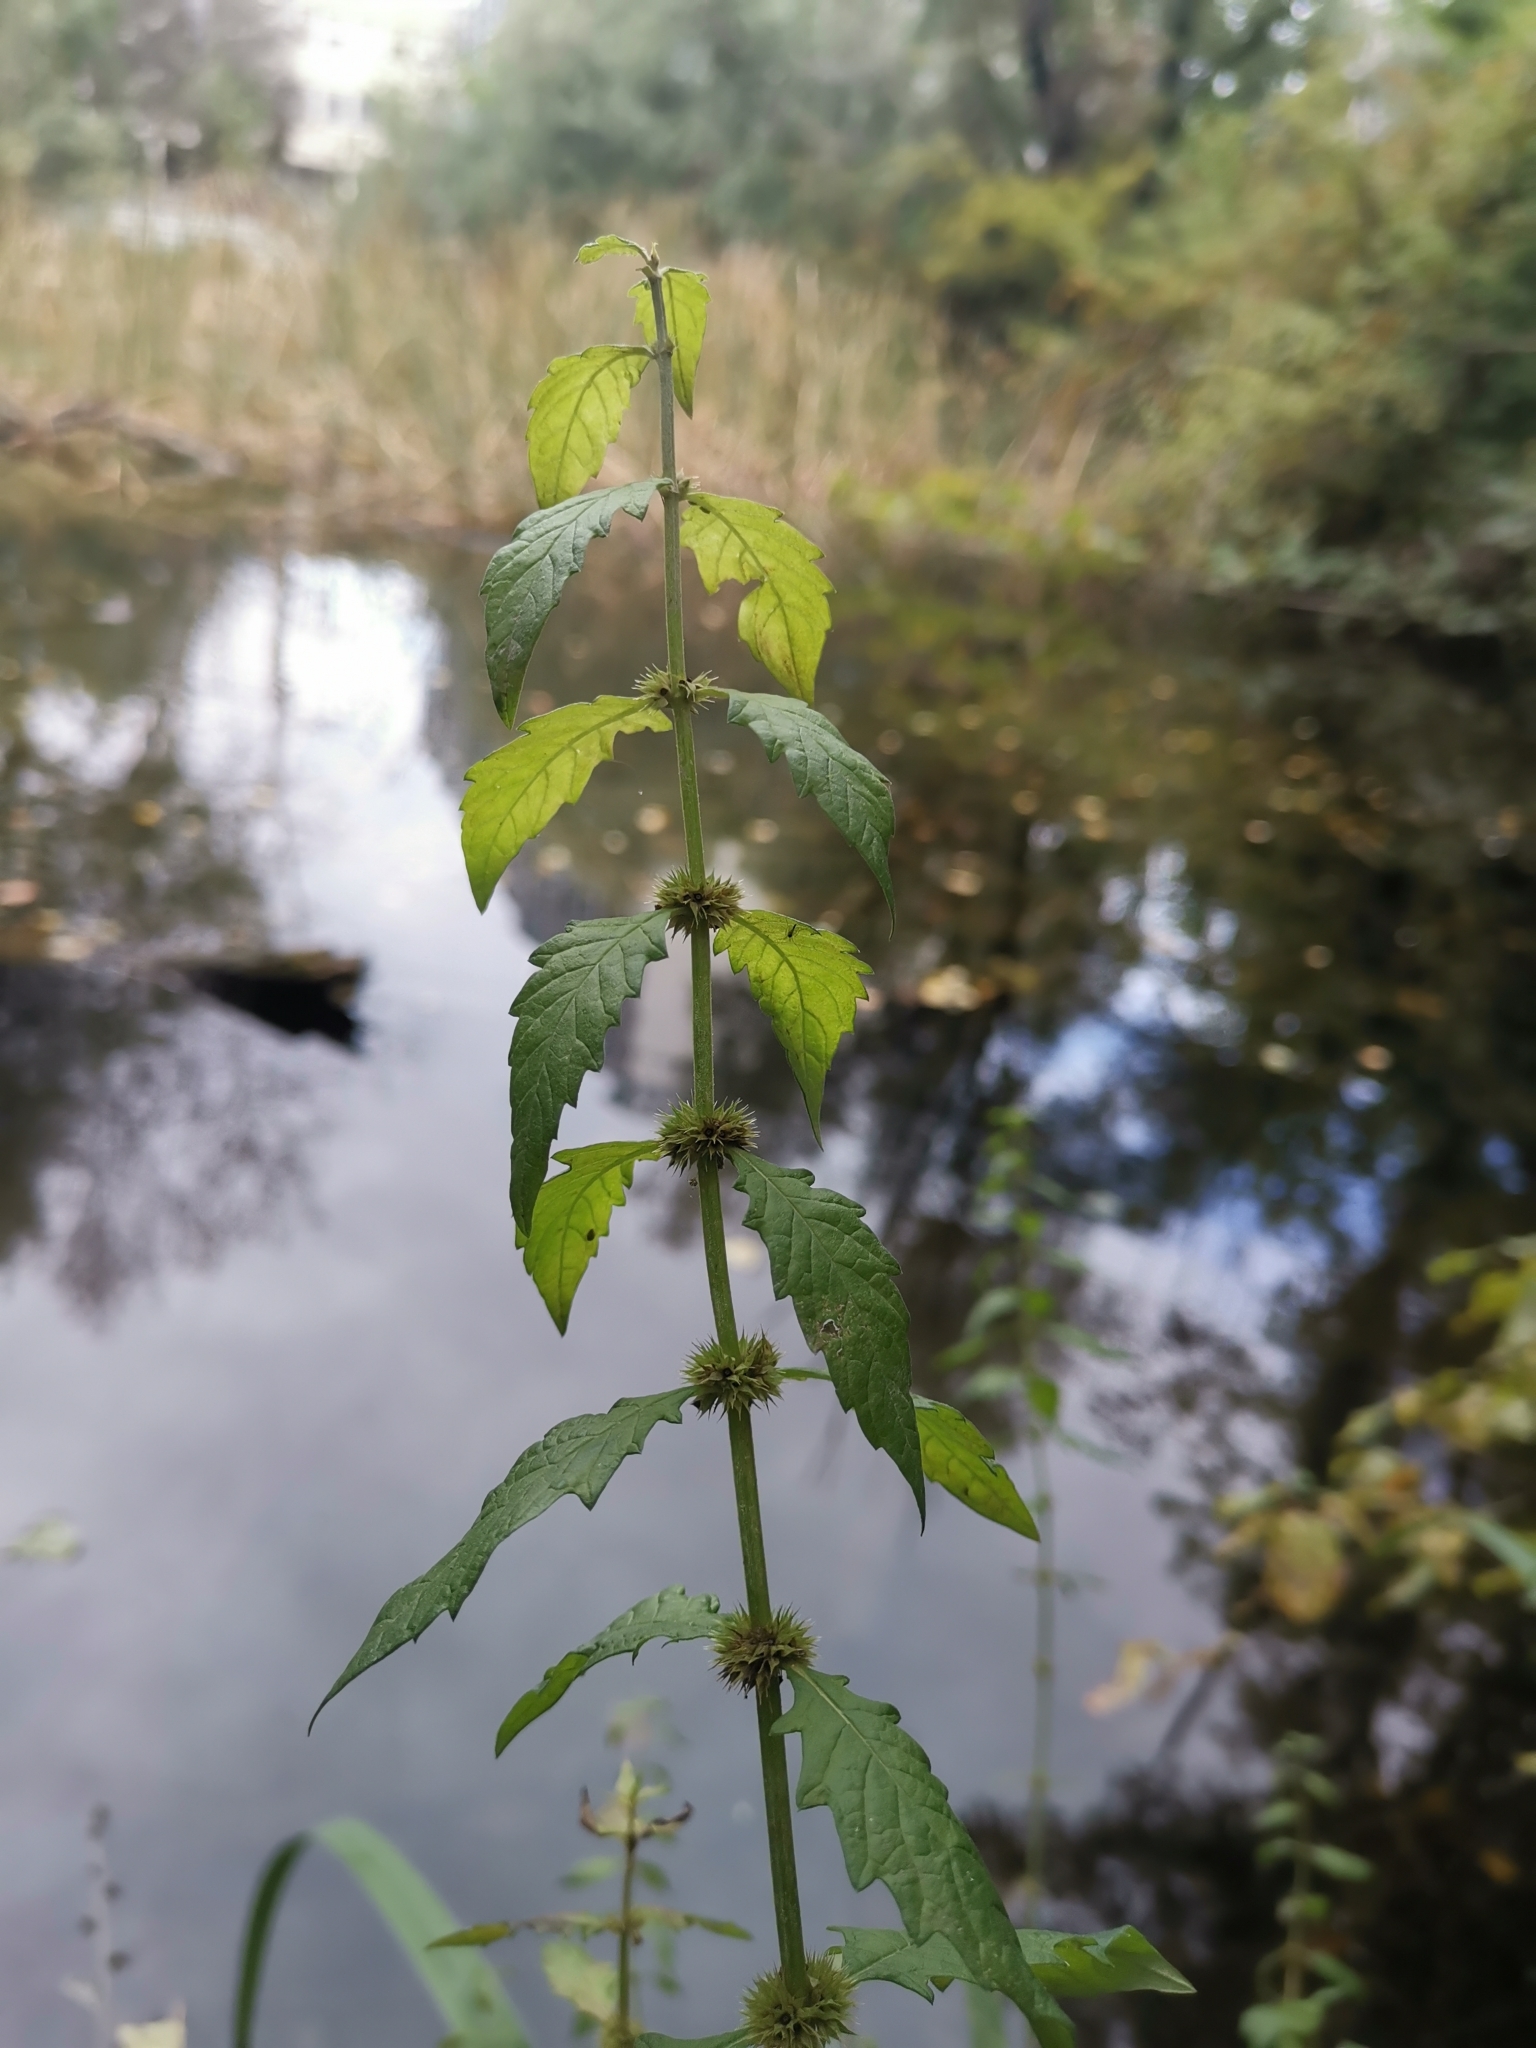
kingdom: Plantae
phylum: Tracheophyta
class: Magnoliopsida
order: Lamiales
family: Lamiaceae
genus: Lycopus
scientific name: Lycopus europaeus
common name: European bugleweed
